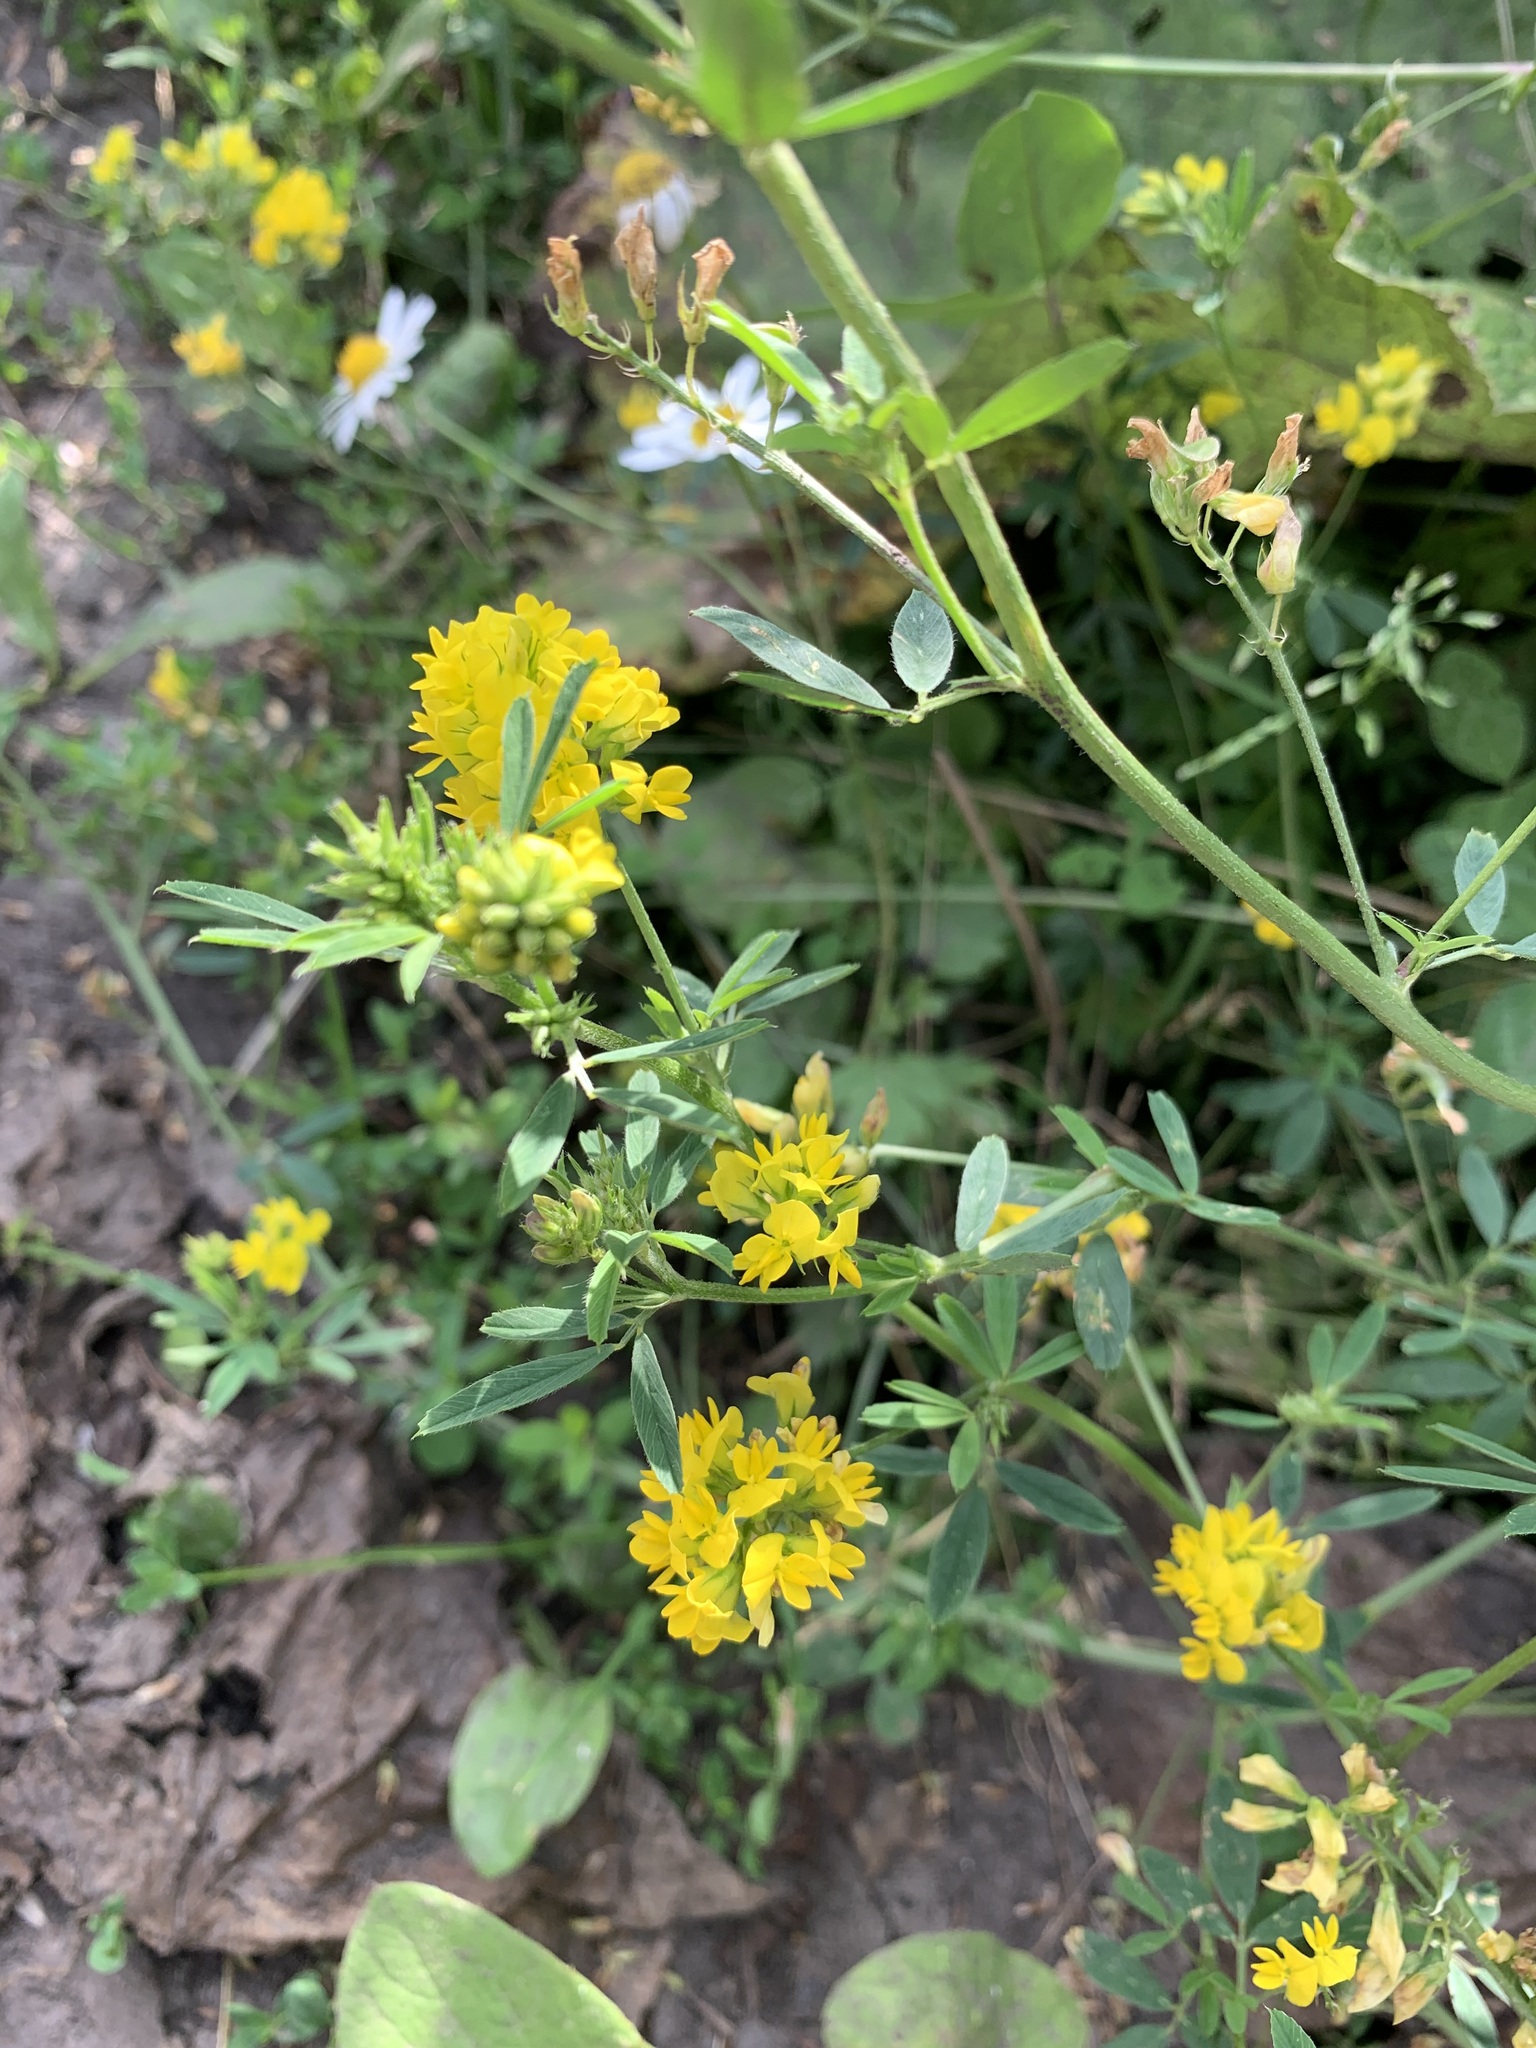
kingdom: Plantae
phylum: Tracheophyta
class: Magnoliopsida
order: Fabales
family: Fabaceae
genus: Medicago
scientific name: Medicago falcata
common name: Sickle medick
